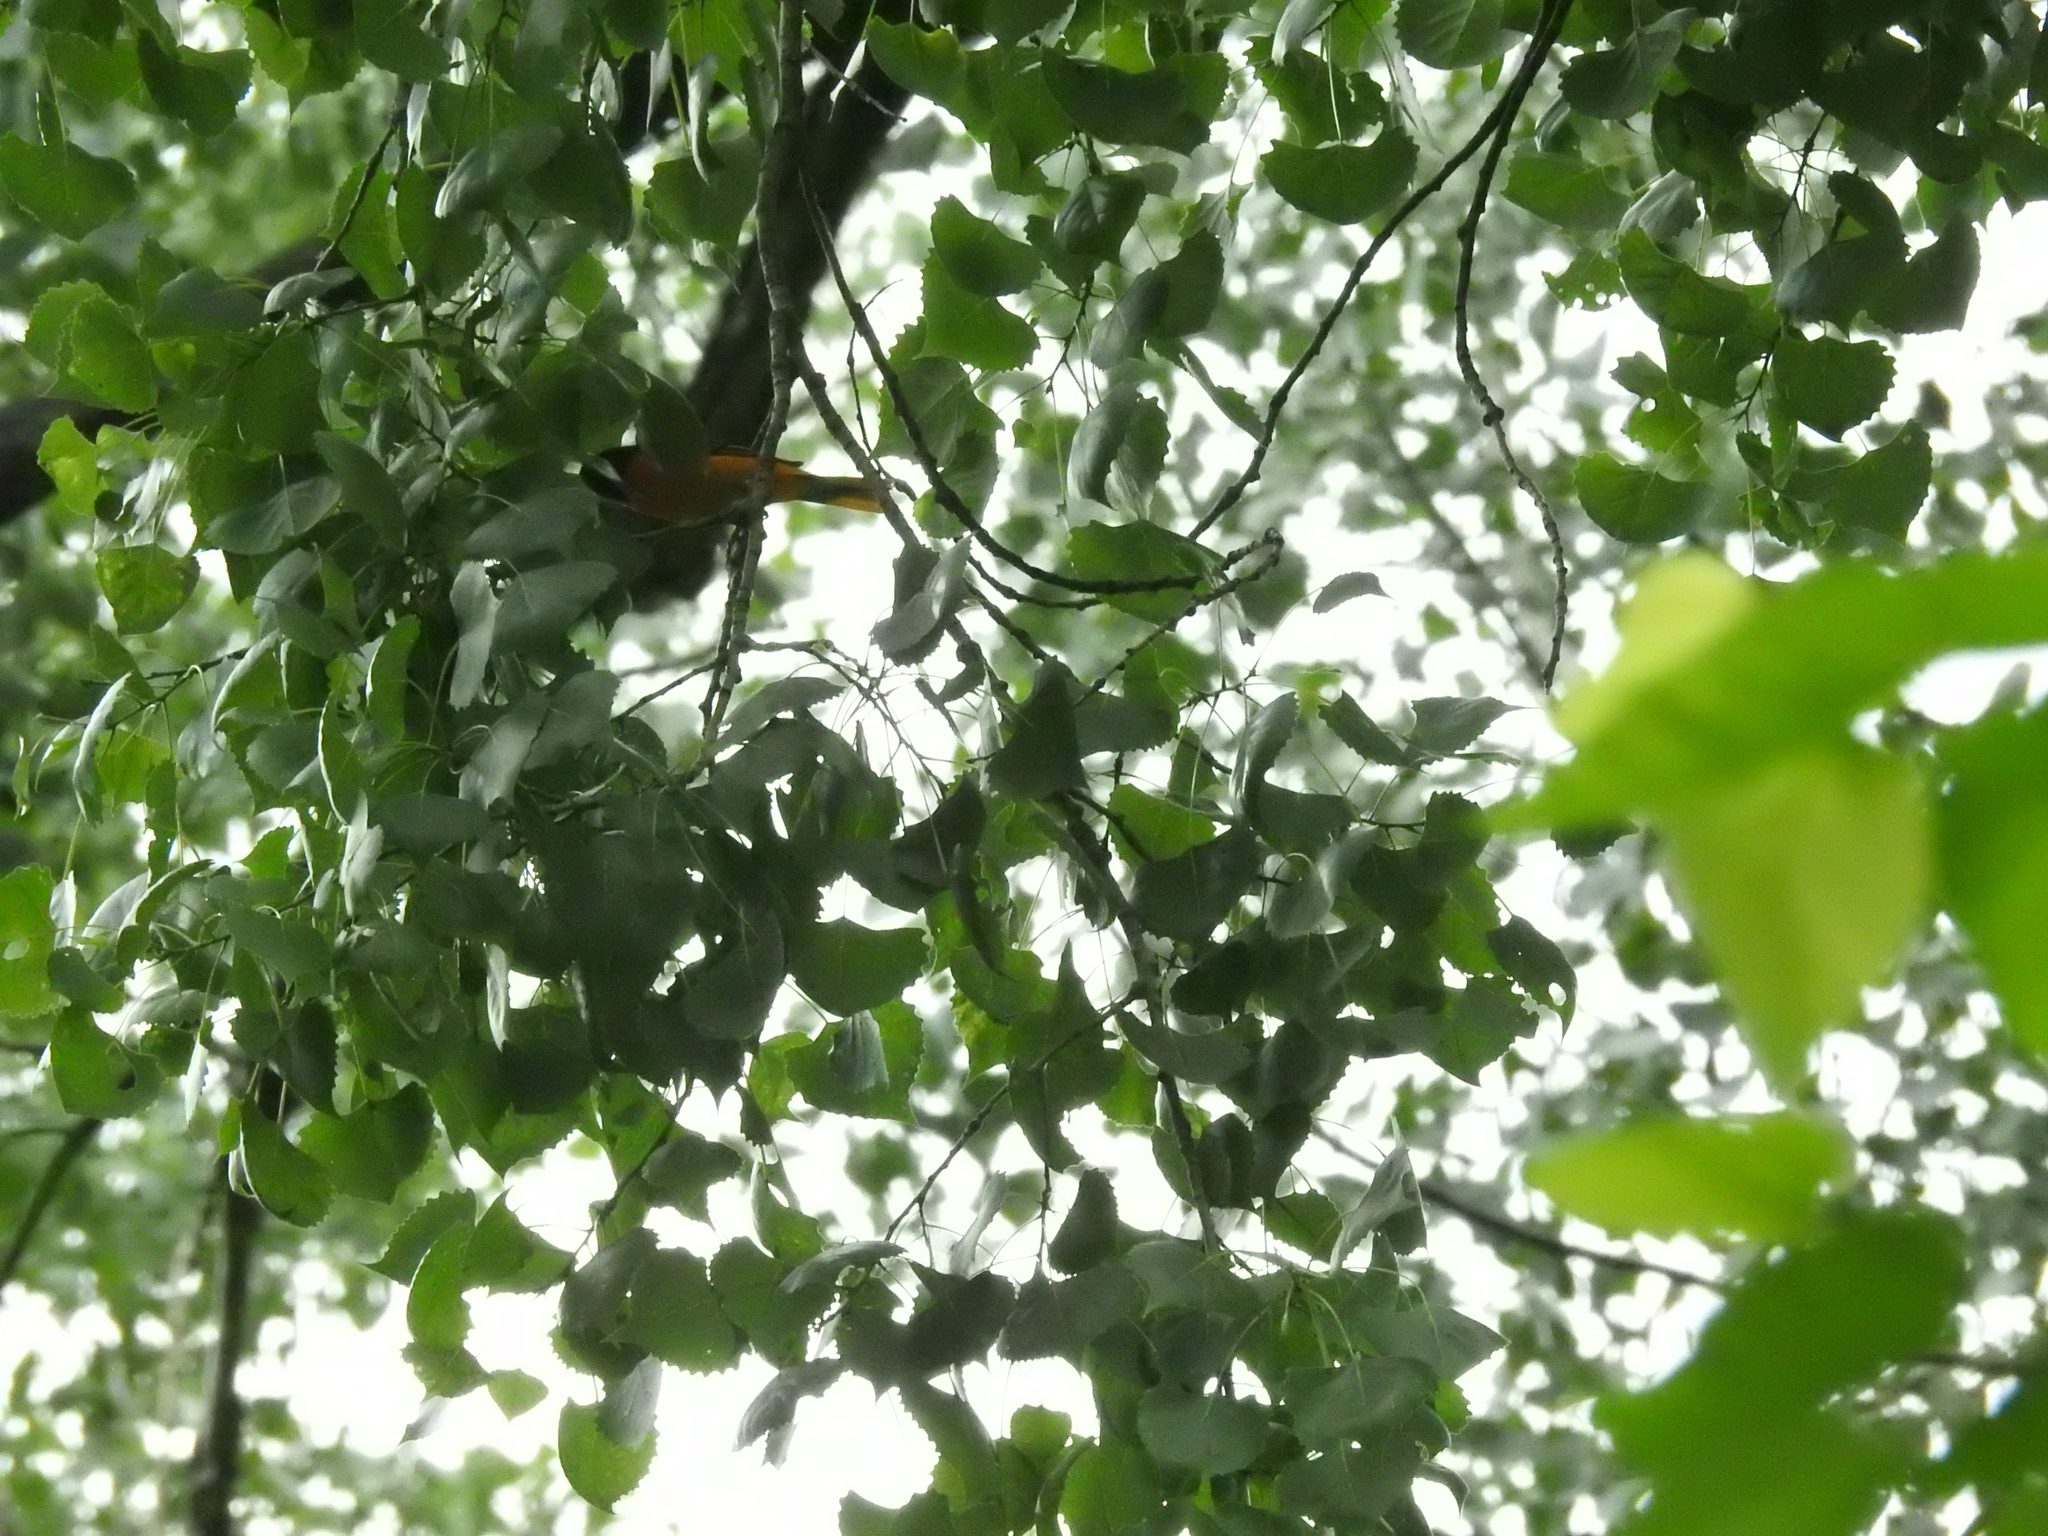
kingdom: Animalia
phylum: Chordata
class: Aves
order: Passeriformes
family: Icteridae
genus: Icterus
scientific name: Icterus galbula
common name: Baltimore oriole
